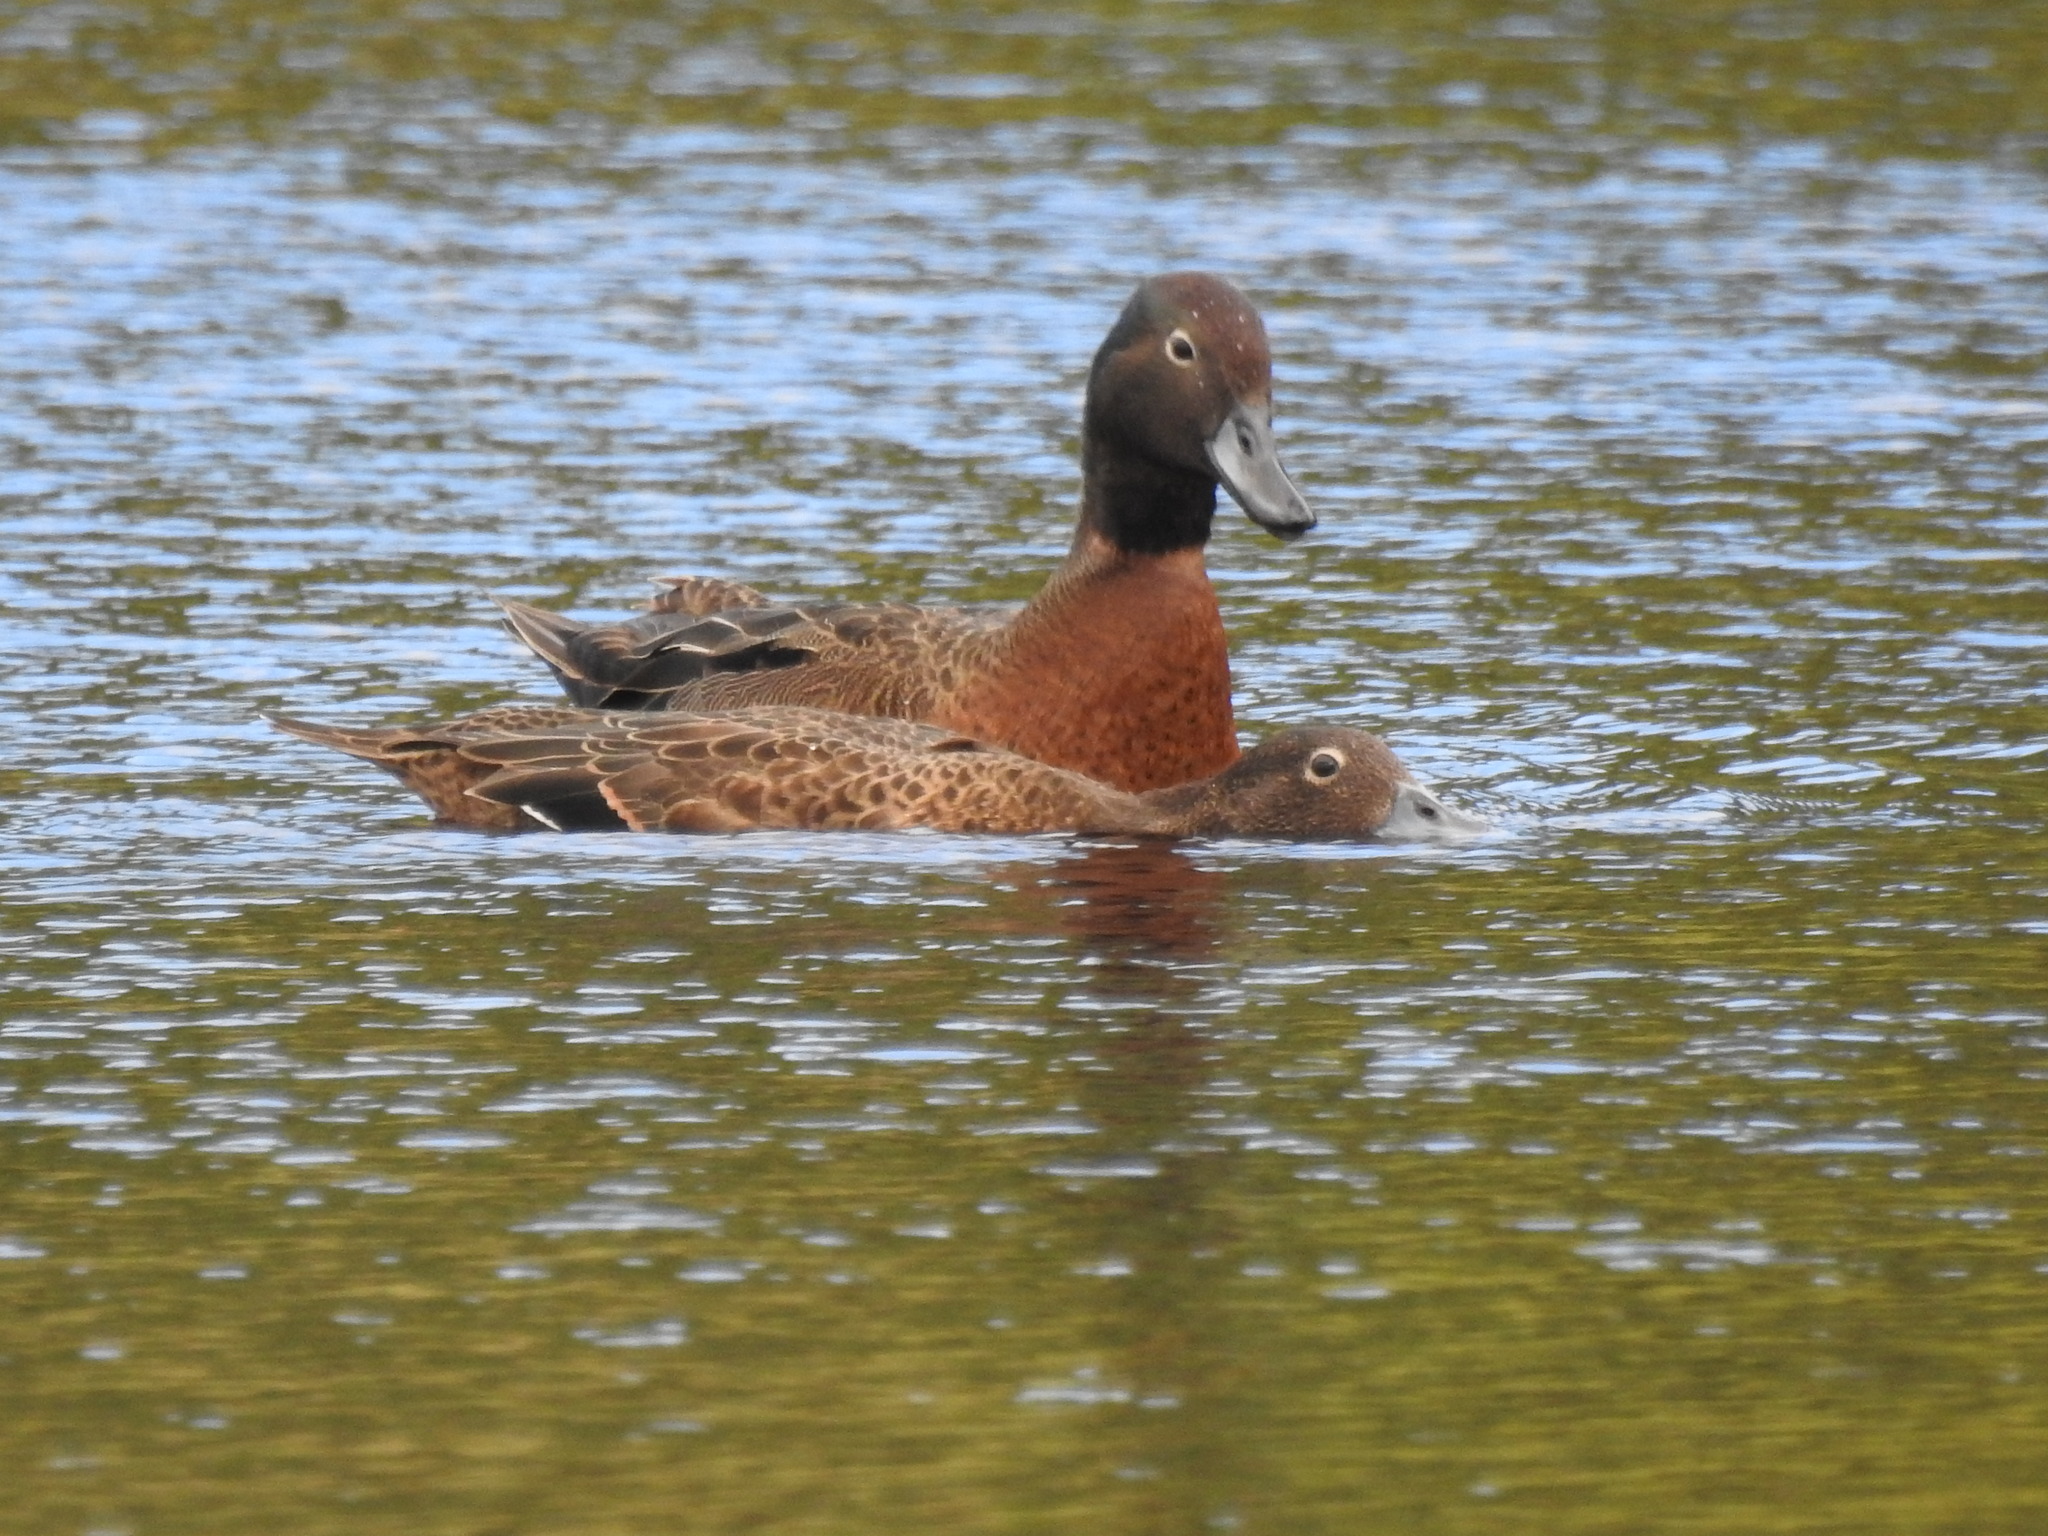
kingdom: Animalia
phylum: Chordata
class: Aves
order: Anseriformes
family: Anatidae
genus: Anas
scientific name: Anas chlorotis
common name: Brown teal
